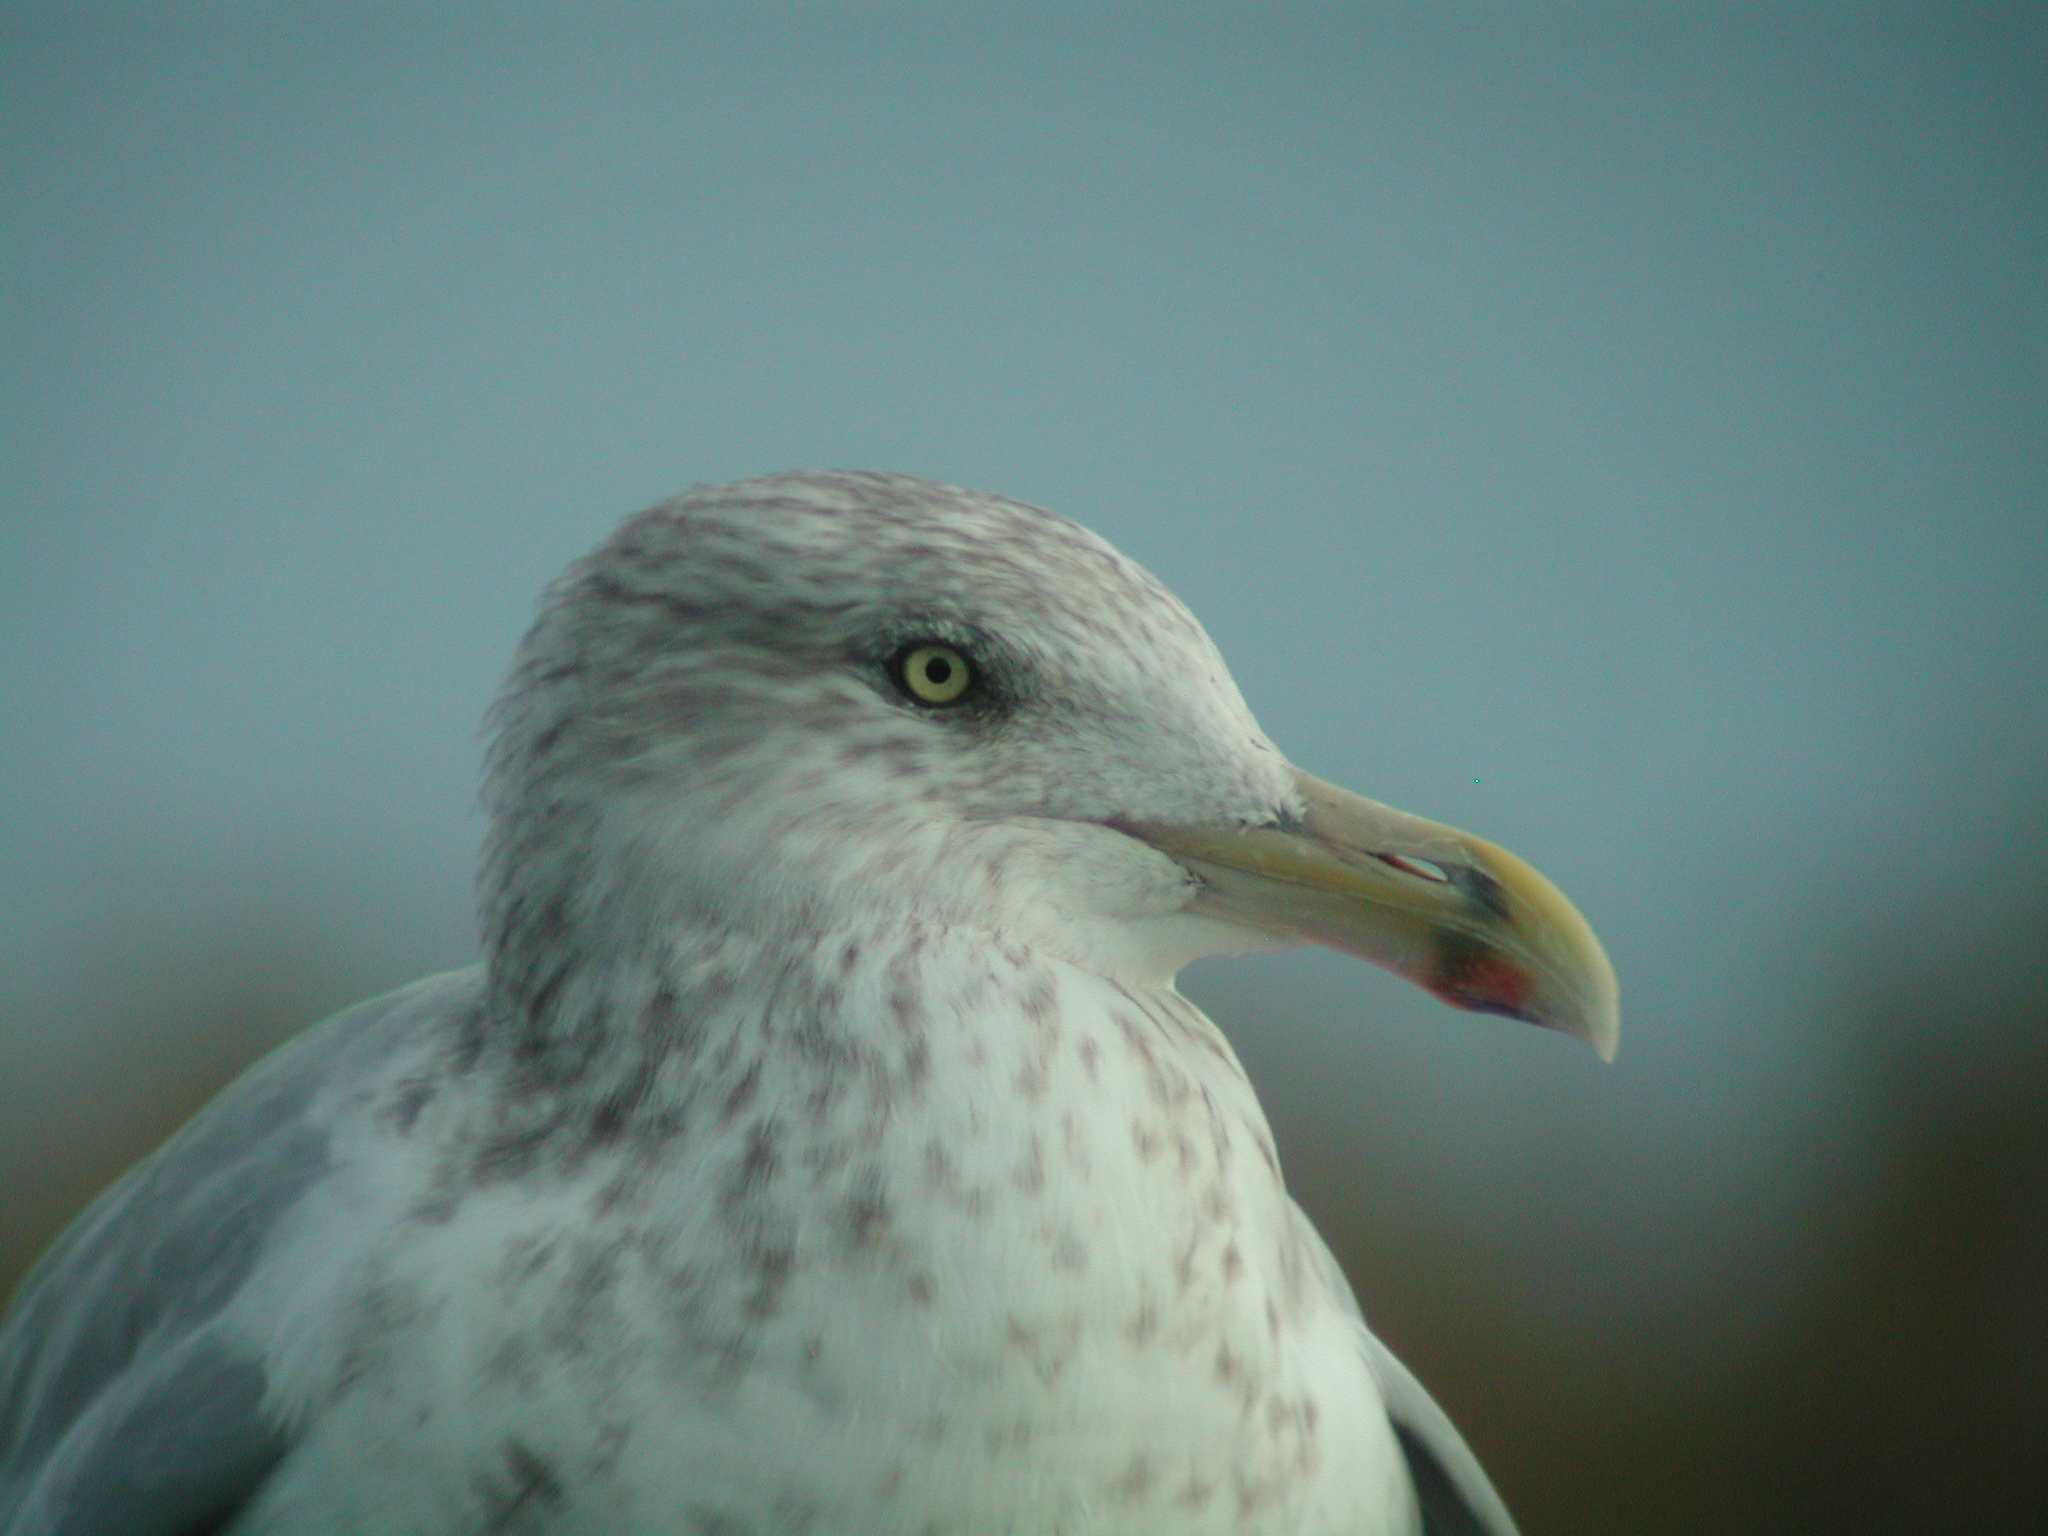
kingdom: Animalia
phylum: Chordata
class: Aves
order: Charadriiformes
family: Laridae
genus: Larus
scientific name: Larus argentatus
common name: Herring gull
